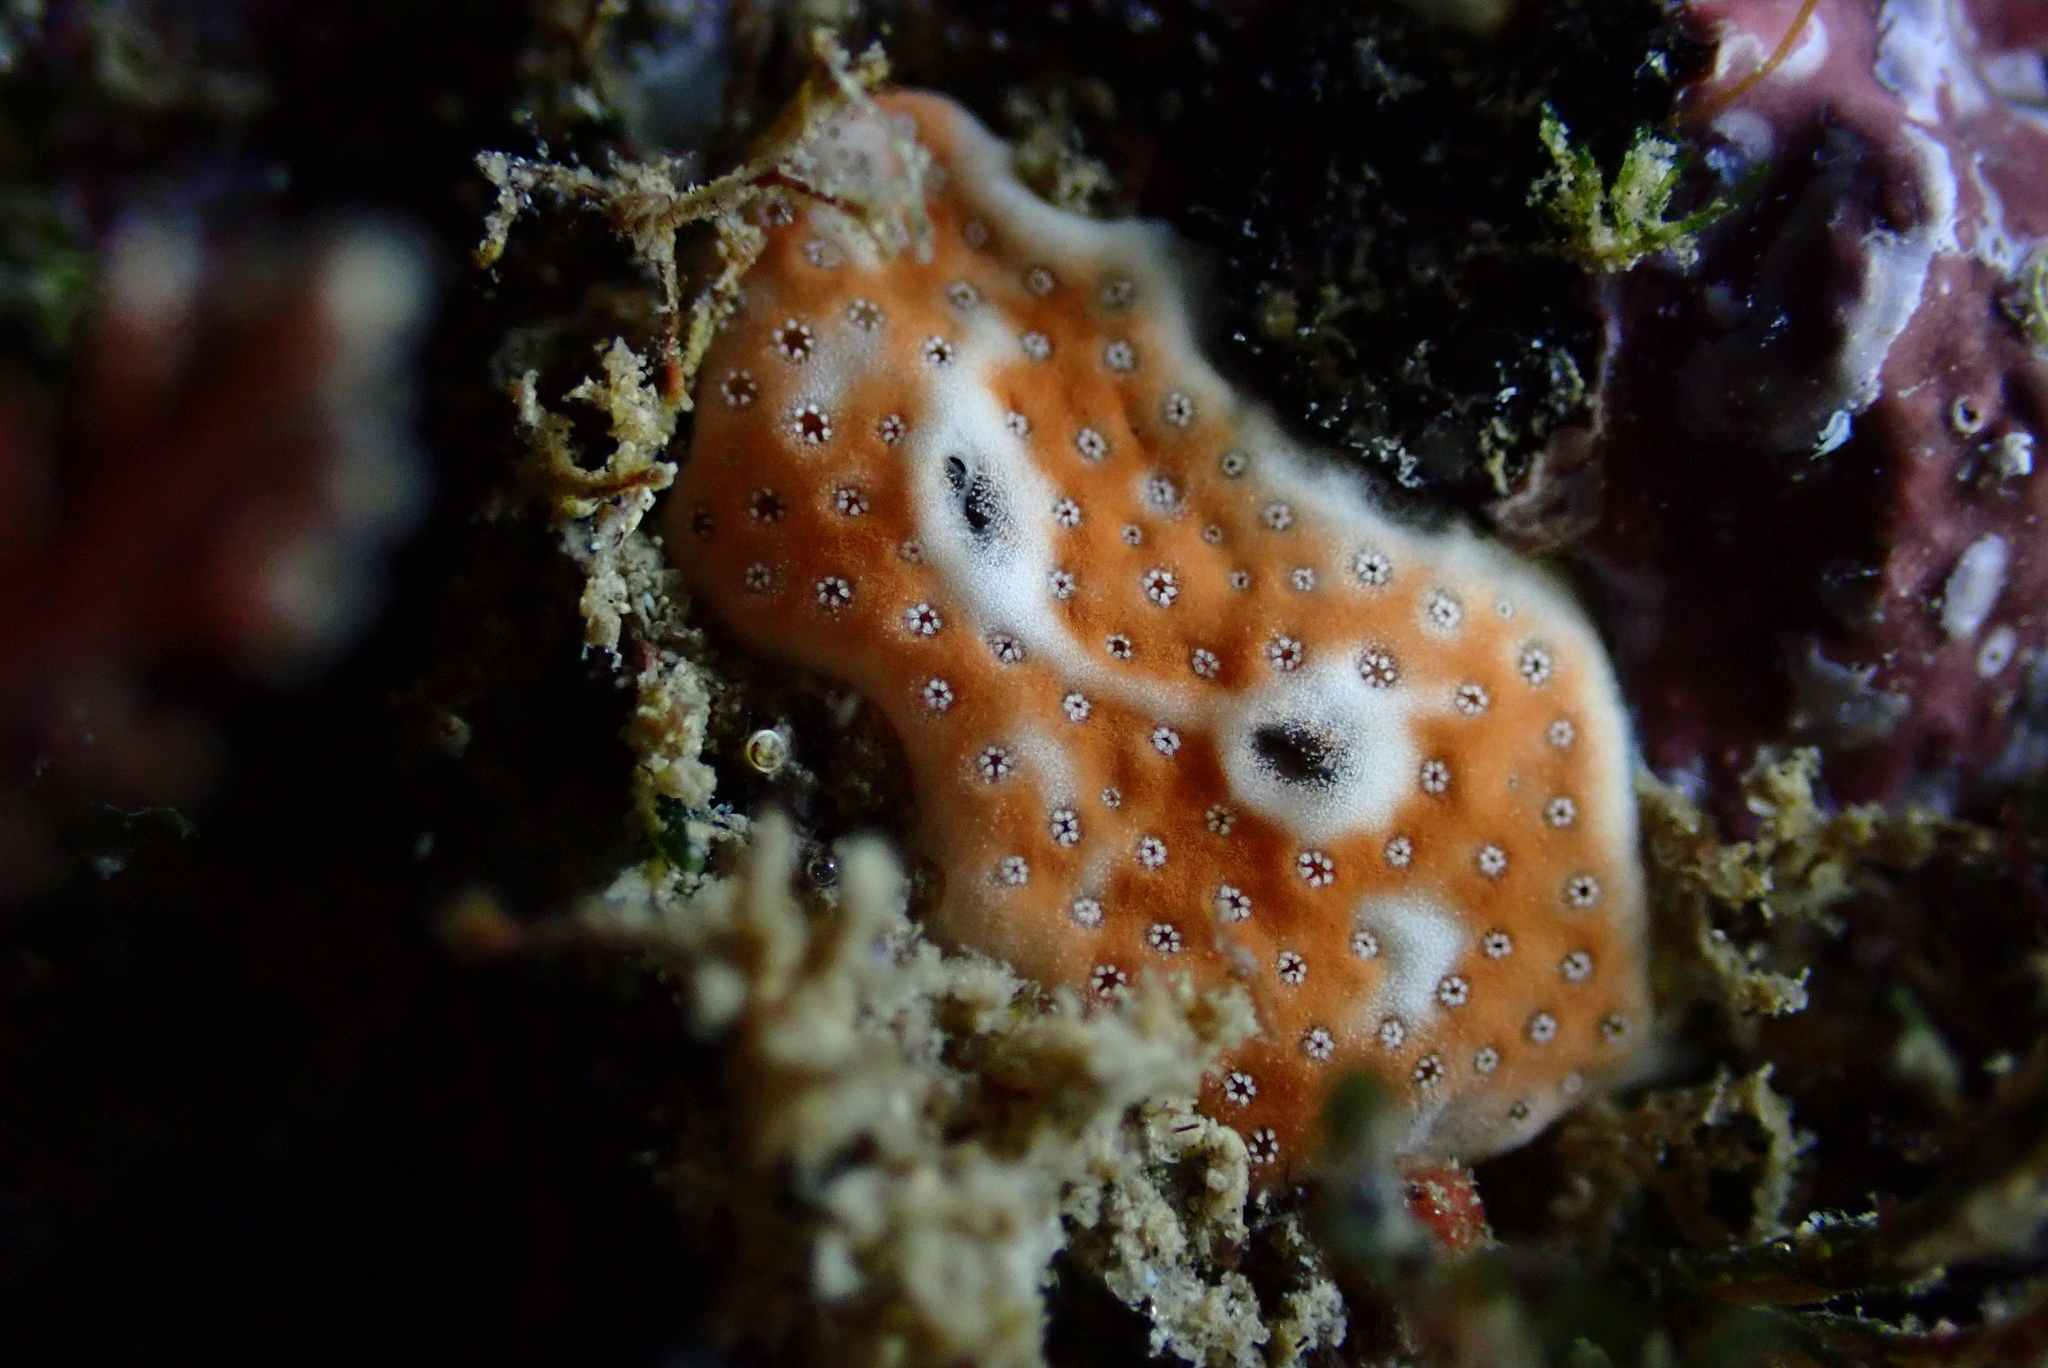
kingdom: Animalia
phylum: Chordata
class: Ascidiacea
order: Aplousobranchia
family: Didemnidae
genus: Lissoclinum
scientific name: Lissoclinum weigelei
